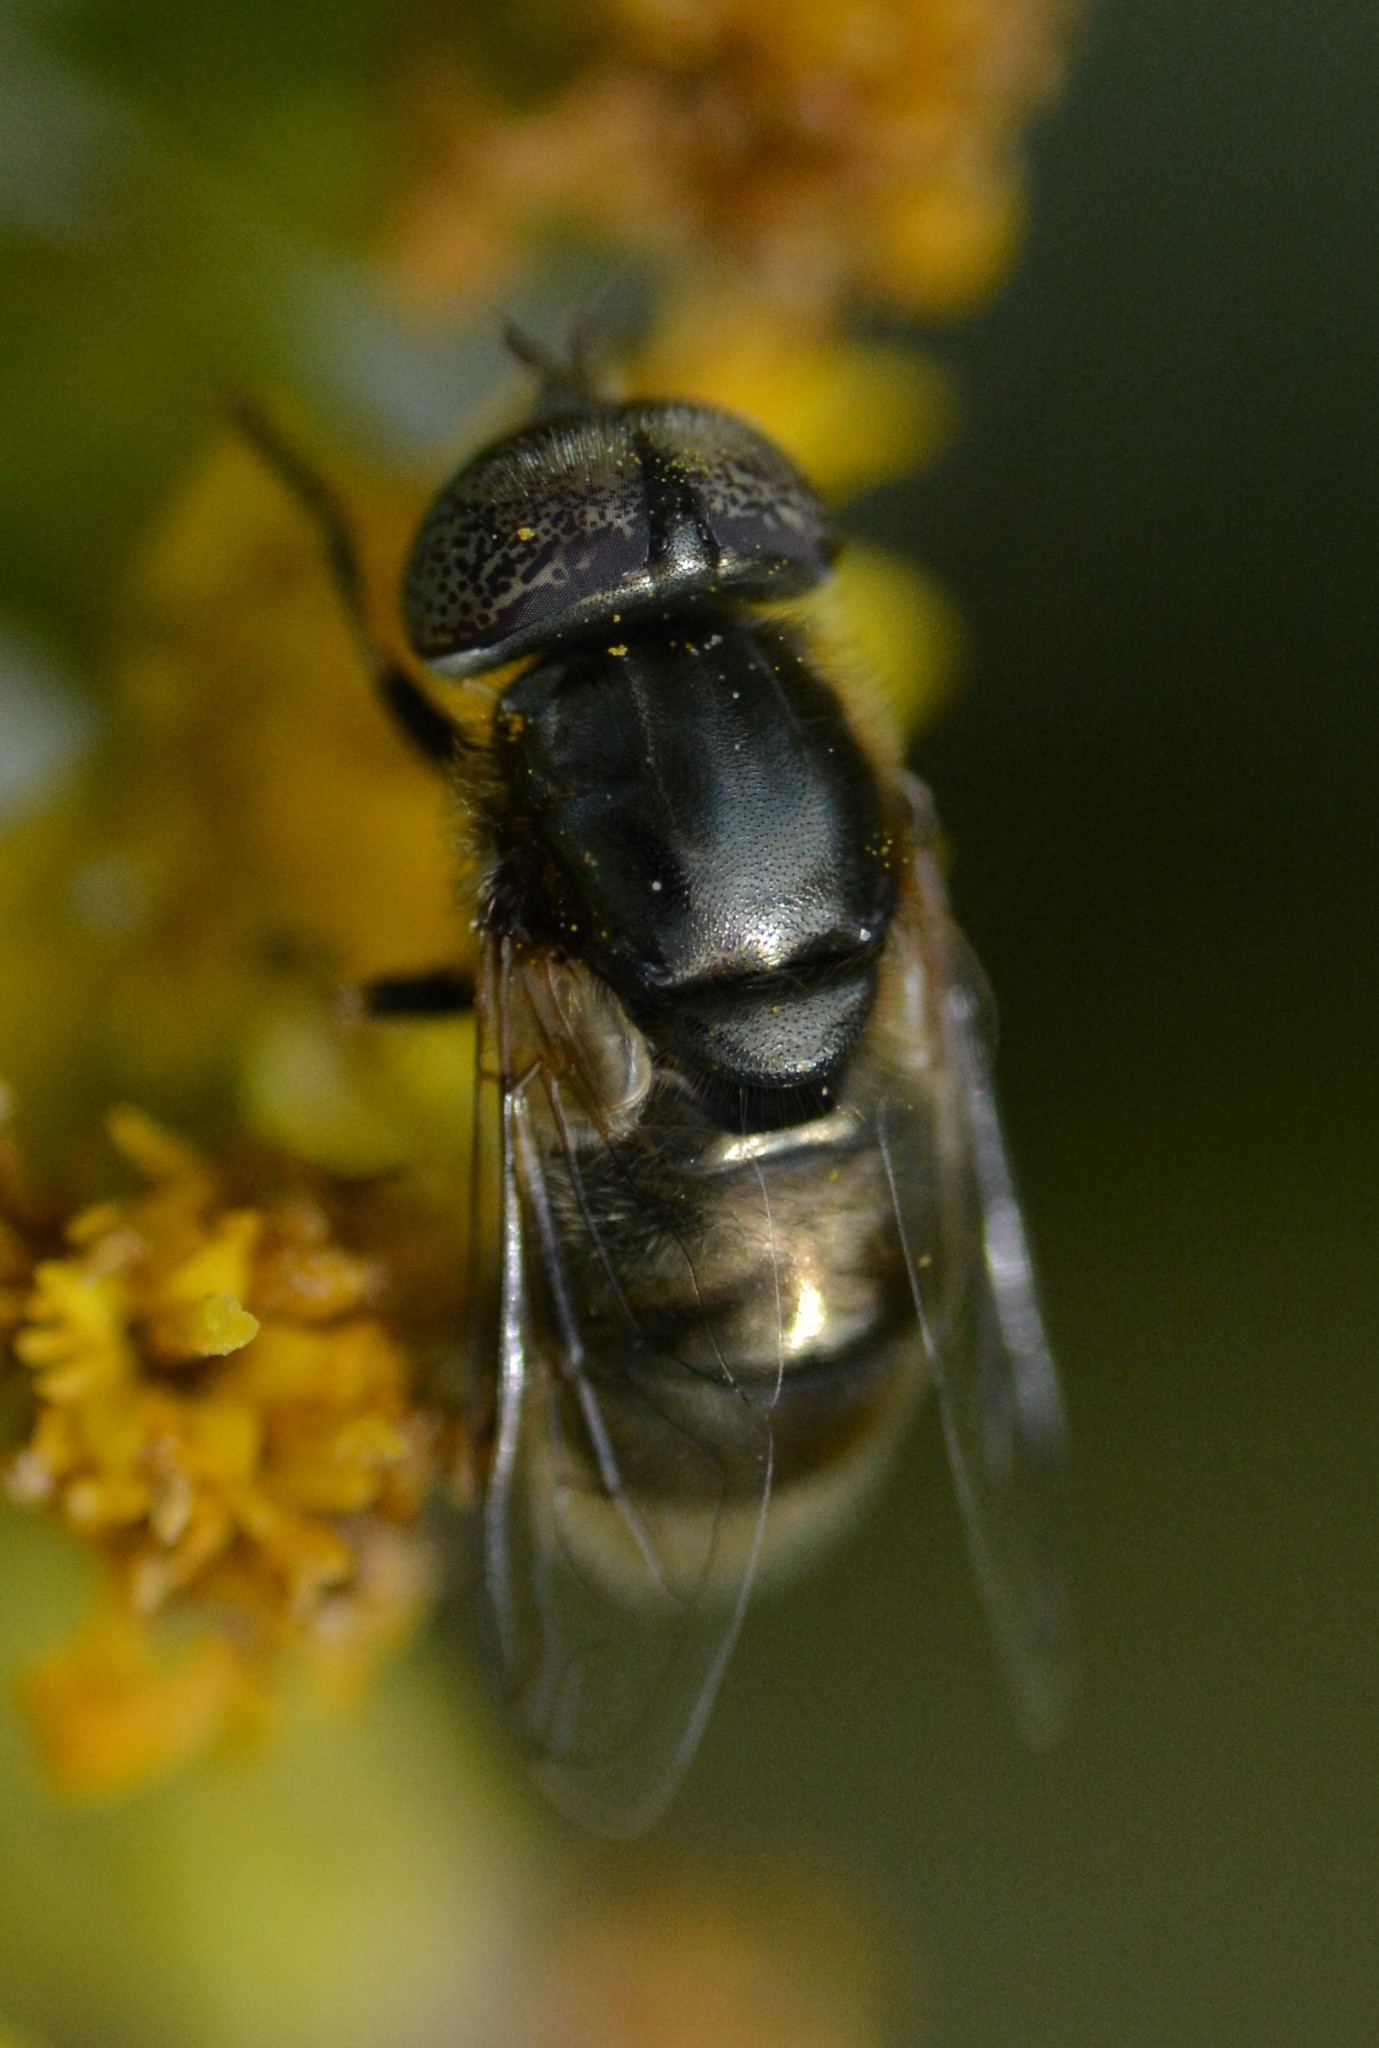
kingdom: Animalia
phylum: Arthropoda
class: Insecta
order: Diptera
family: Syrphidae
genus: Eristalinus
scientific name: Eristalinus aeneus
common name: Syrphid fly
